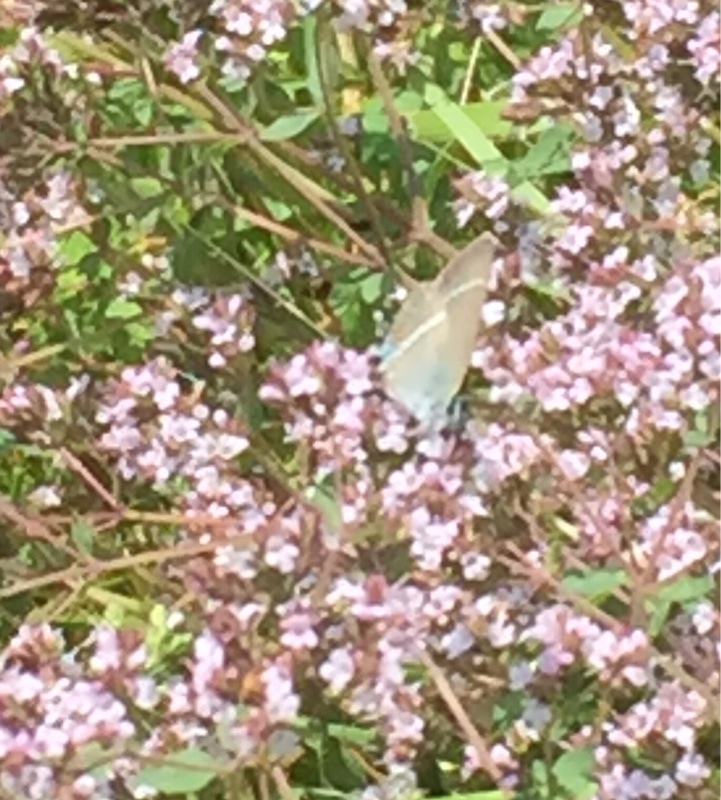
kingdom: Animalia
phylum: Arthropoda
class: Insecta
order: Lepidoptera
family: Lycaenidae
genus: Tuttiola
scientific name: Tuttiola spini
